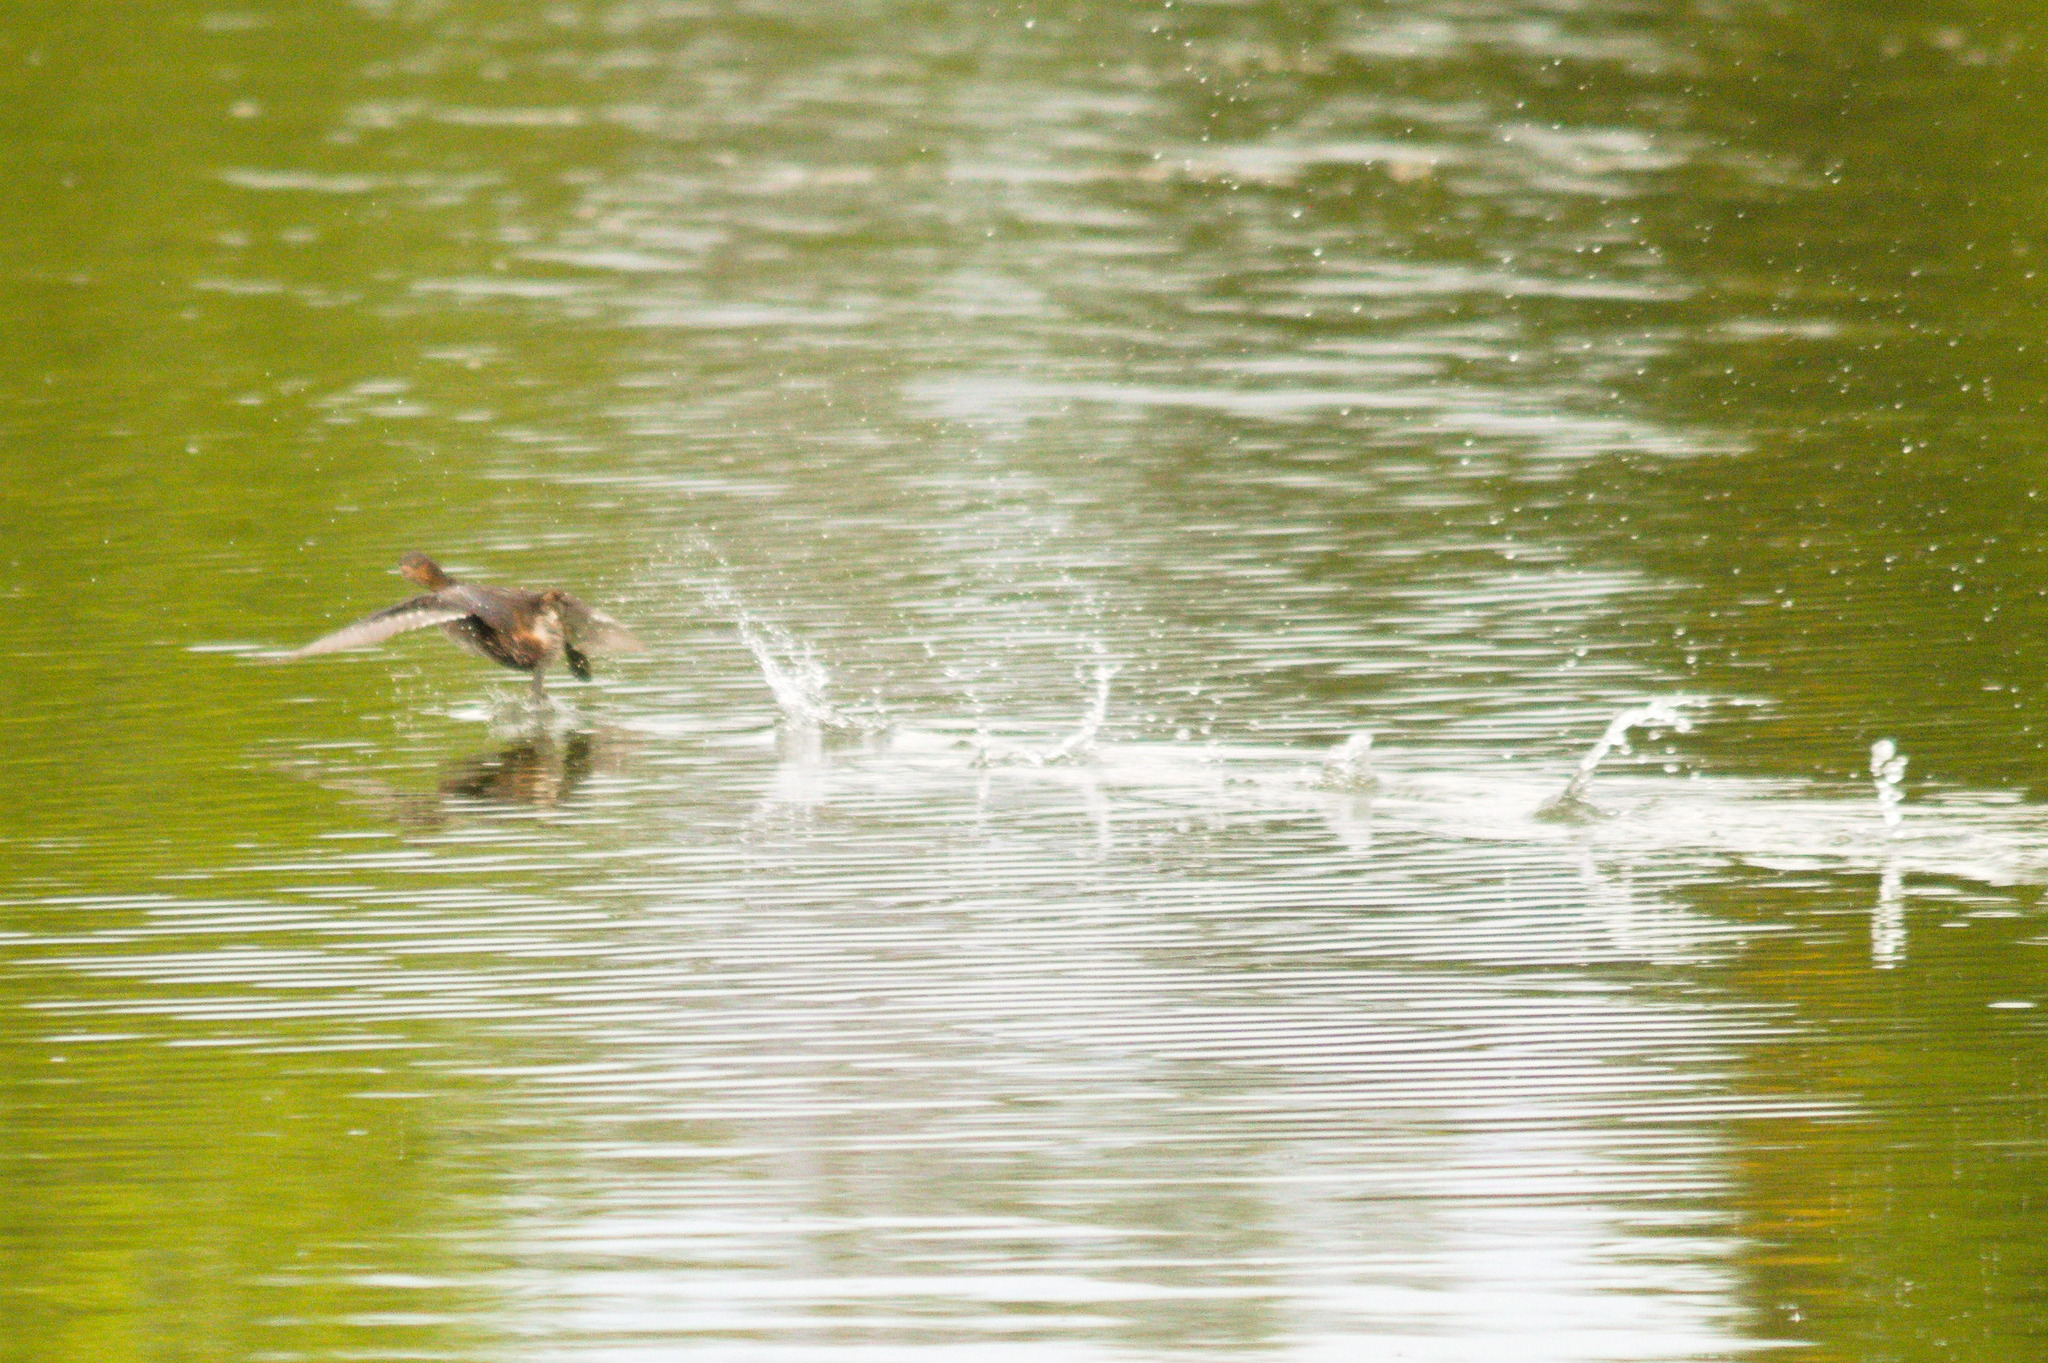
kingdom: Animalia
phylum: Chordata
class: Aves
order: Podicipediformes
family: Podicipedidae
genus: Tachybaptus
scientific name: Tachybaptus ruficollis
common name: Little grebe
